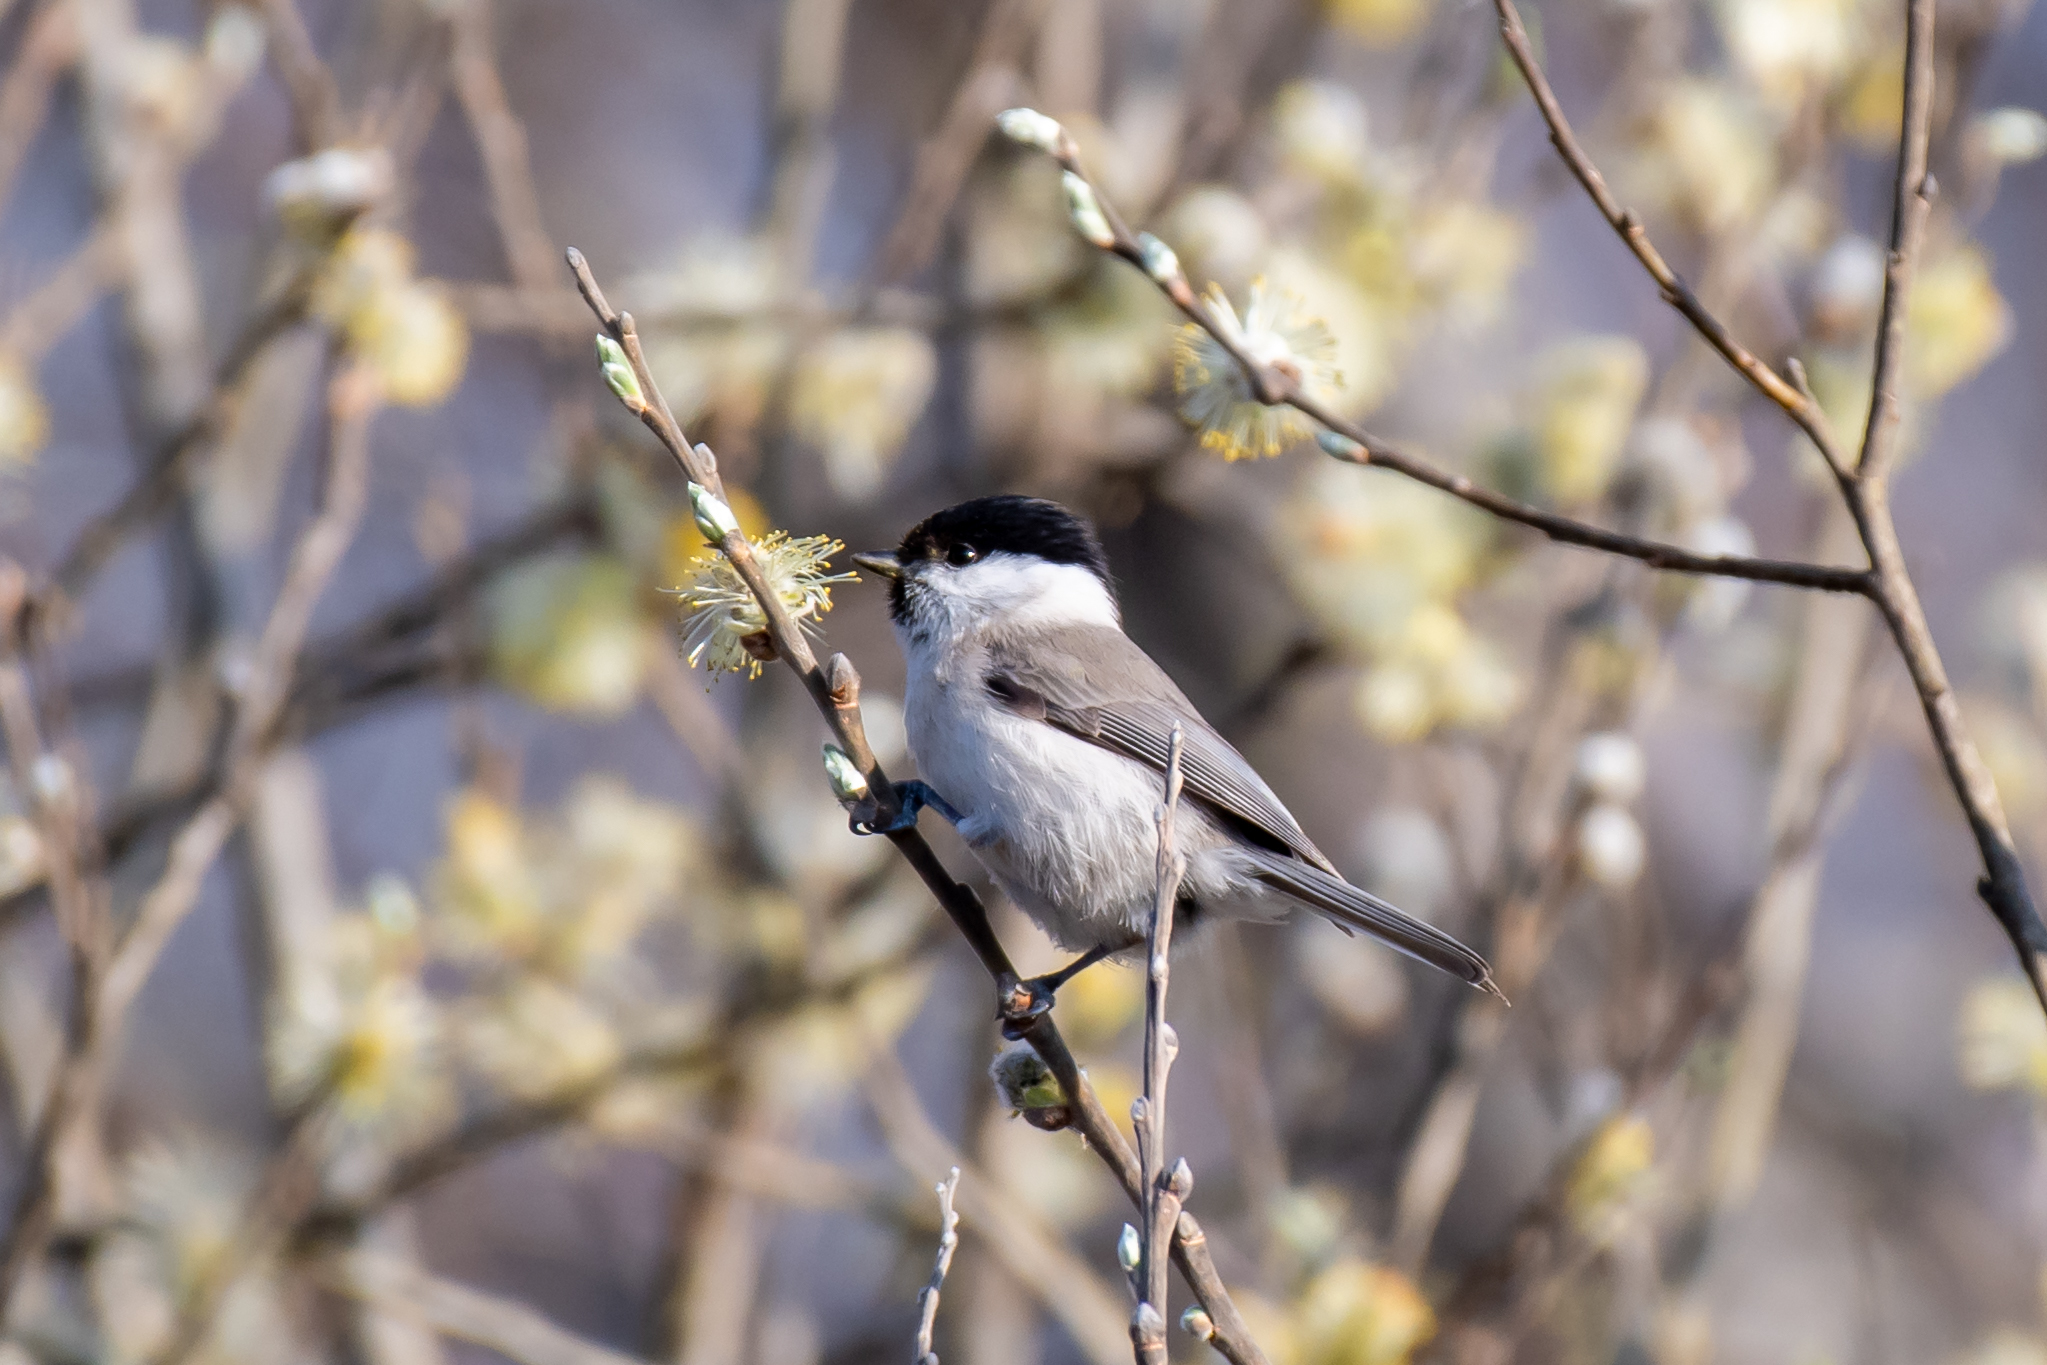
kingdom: Animalia
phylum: Chordata
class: Aves
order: Passeriformes
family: Paridae
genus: Poecile
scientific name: Poecile palustris
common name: Marsh tit
